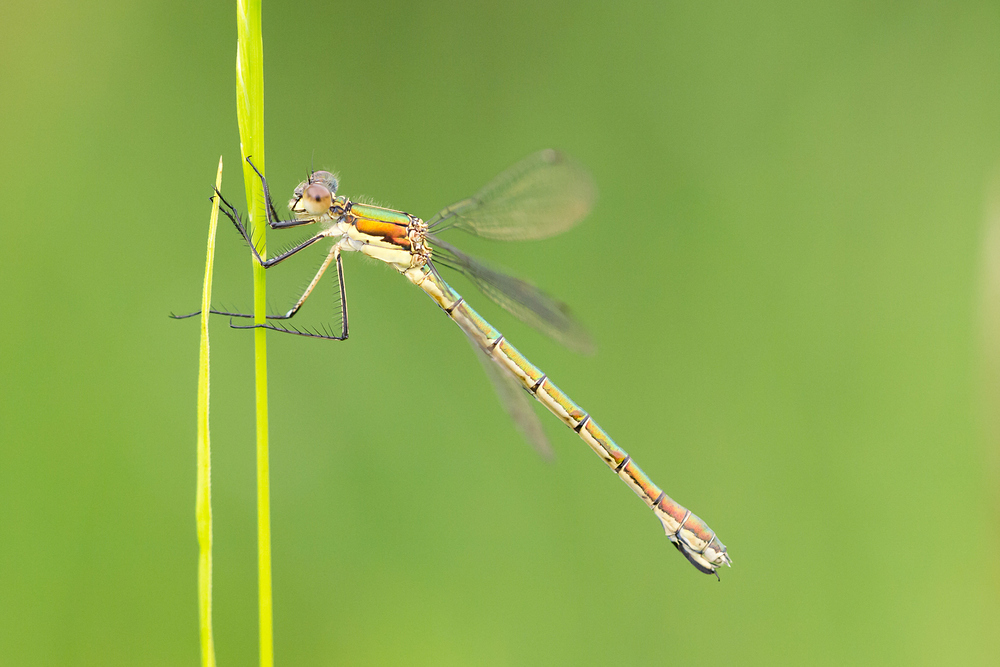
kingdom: Animalia
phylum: Arthropoda
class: Insecta
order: Odonata
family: Lestidae
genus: Lestes
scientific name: Lestes dryas
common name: Scarce emerald damselfly
